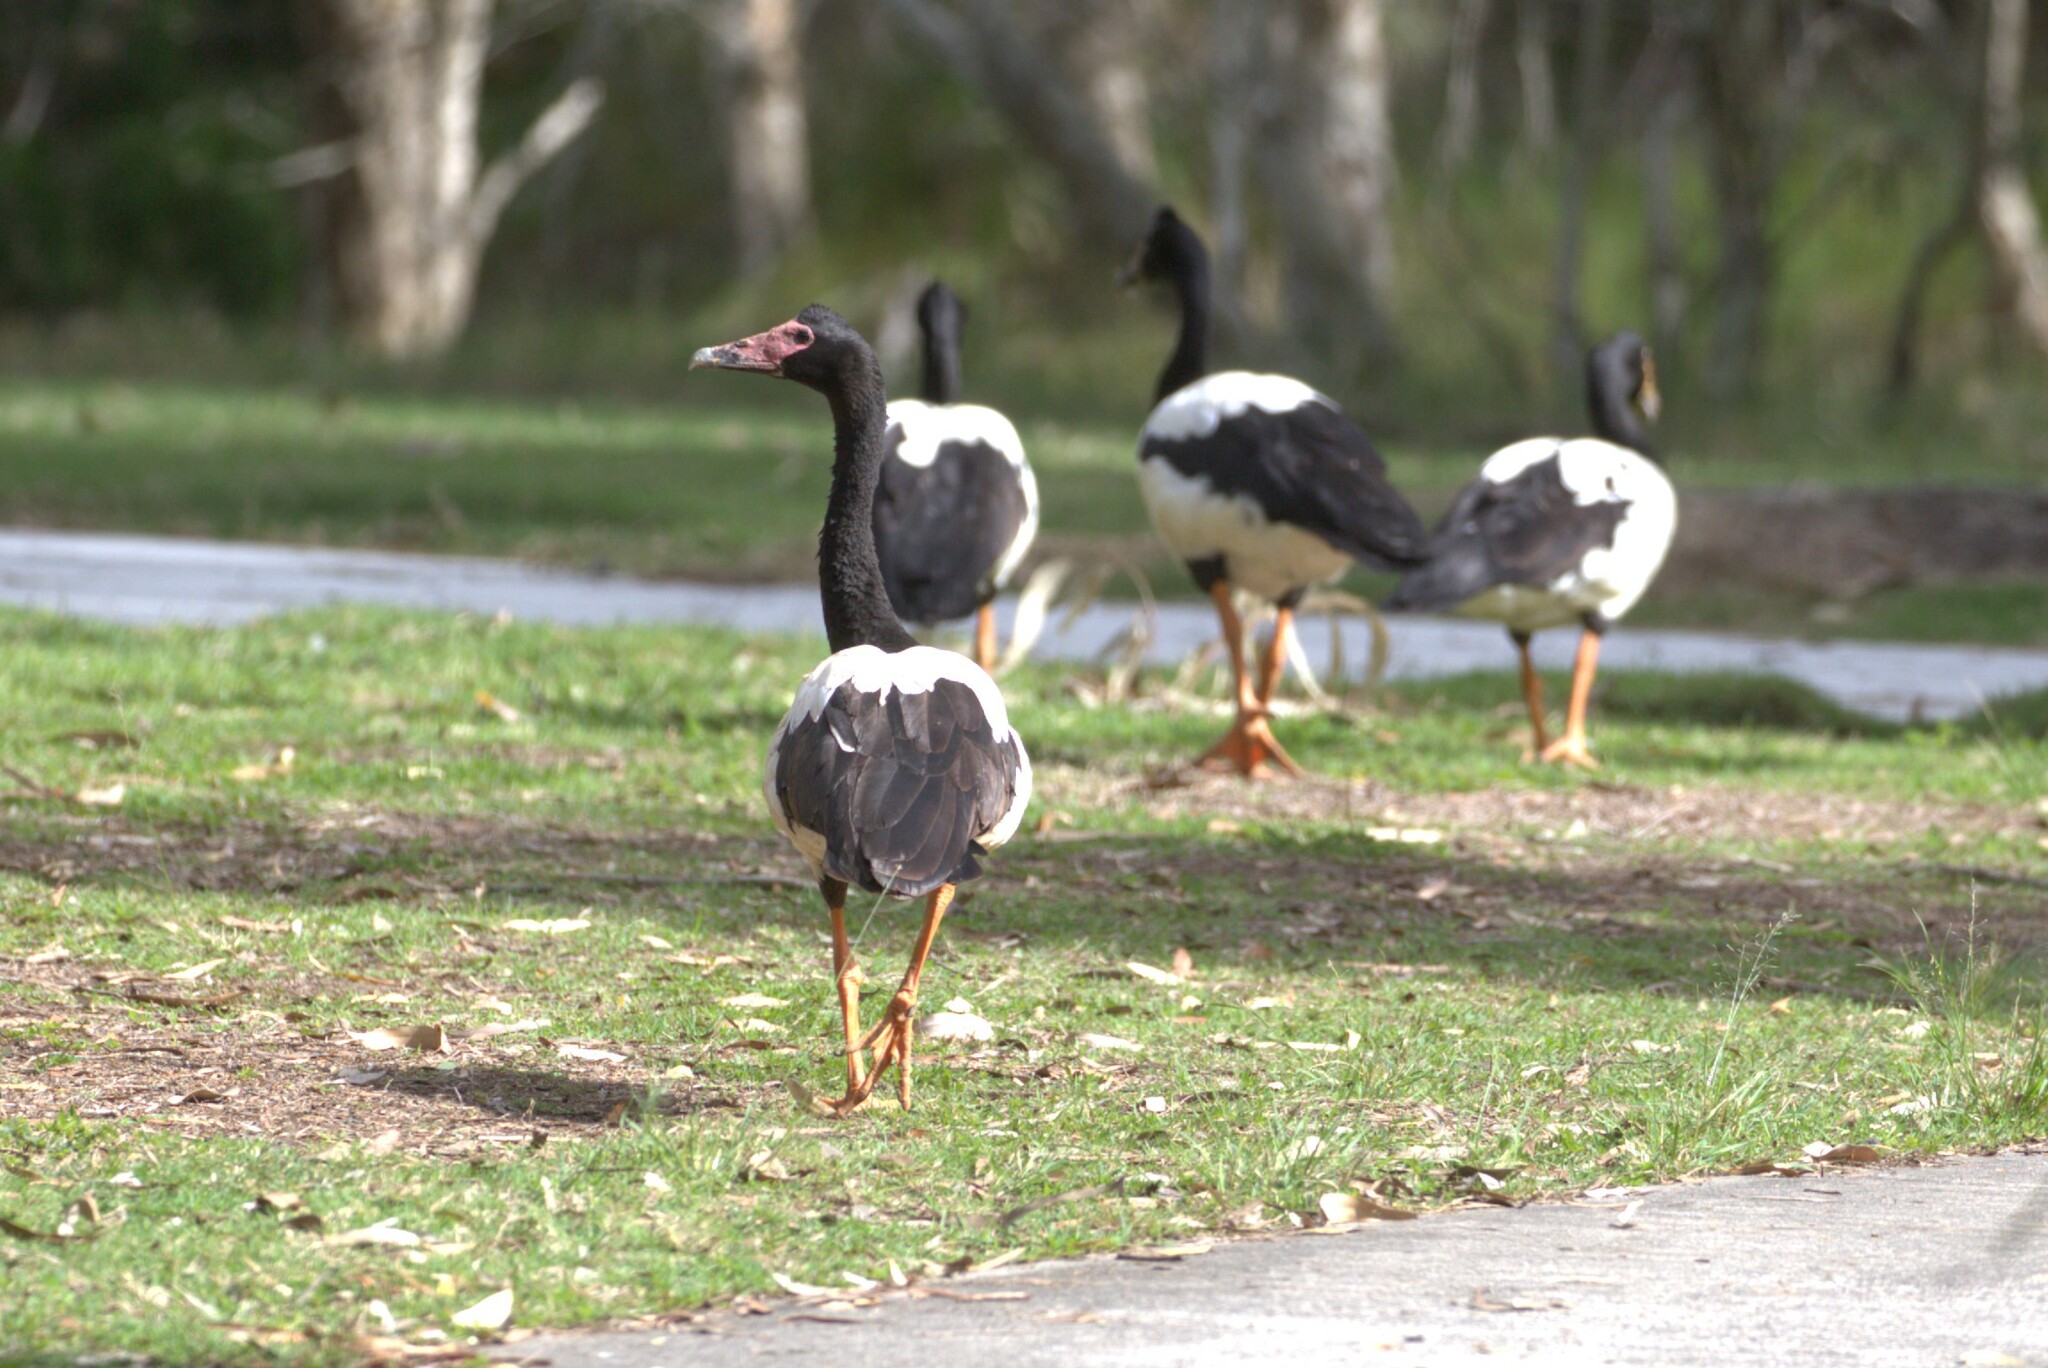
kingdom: Animalia
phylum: Chordata
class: Aves
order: Anseriformes
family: Anseranatidae
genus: Anseranas
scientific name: Anseranas semipalmata
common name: Magpie goose
